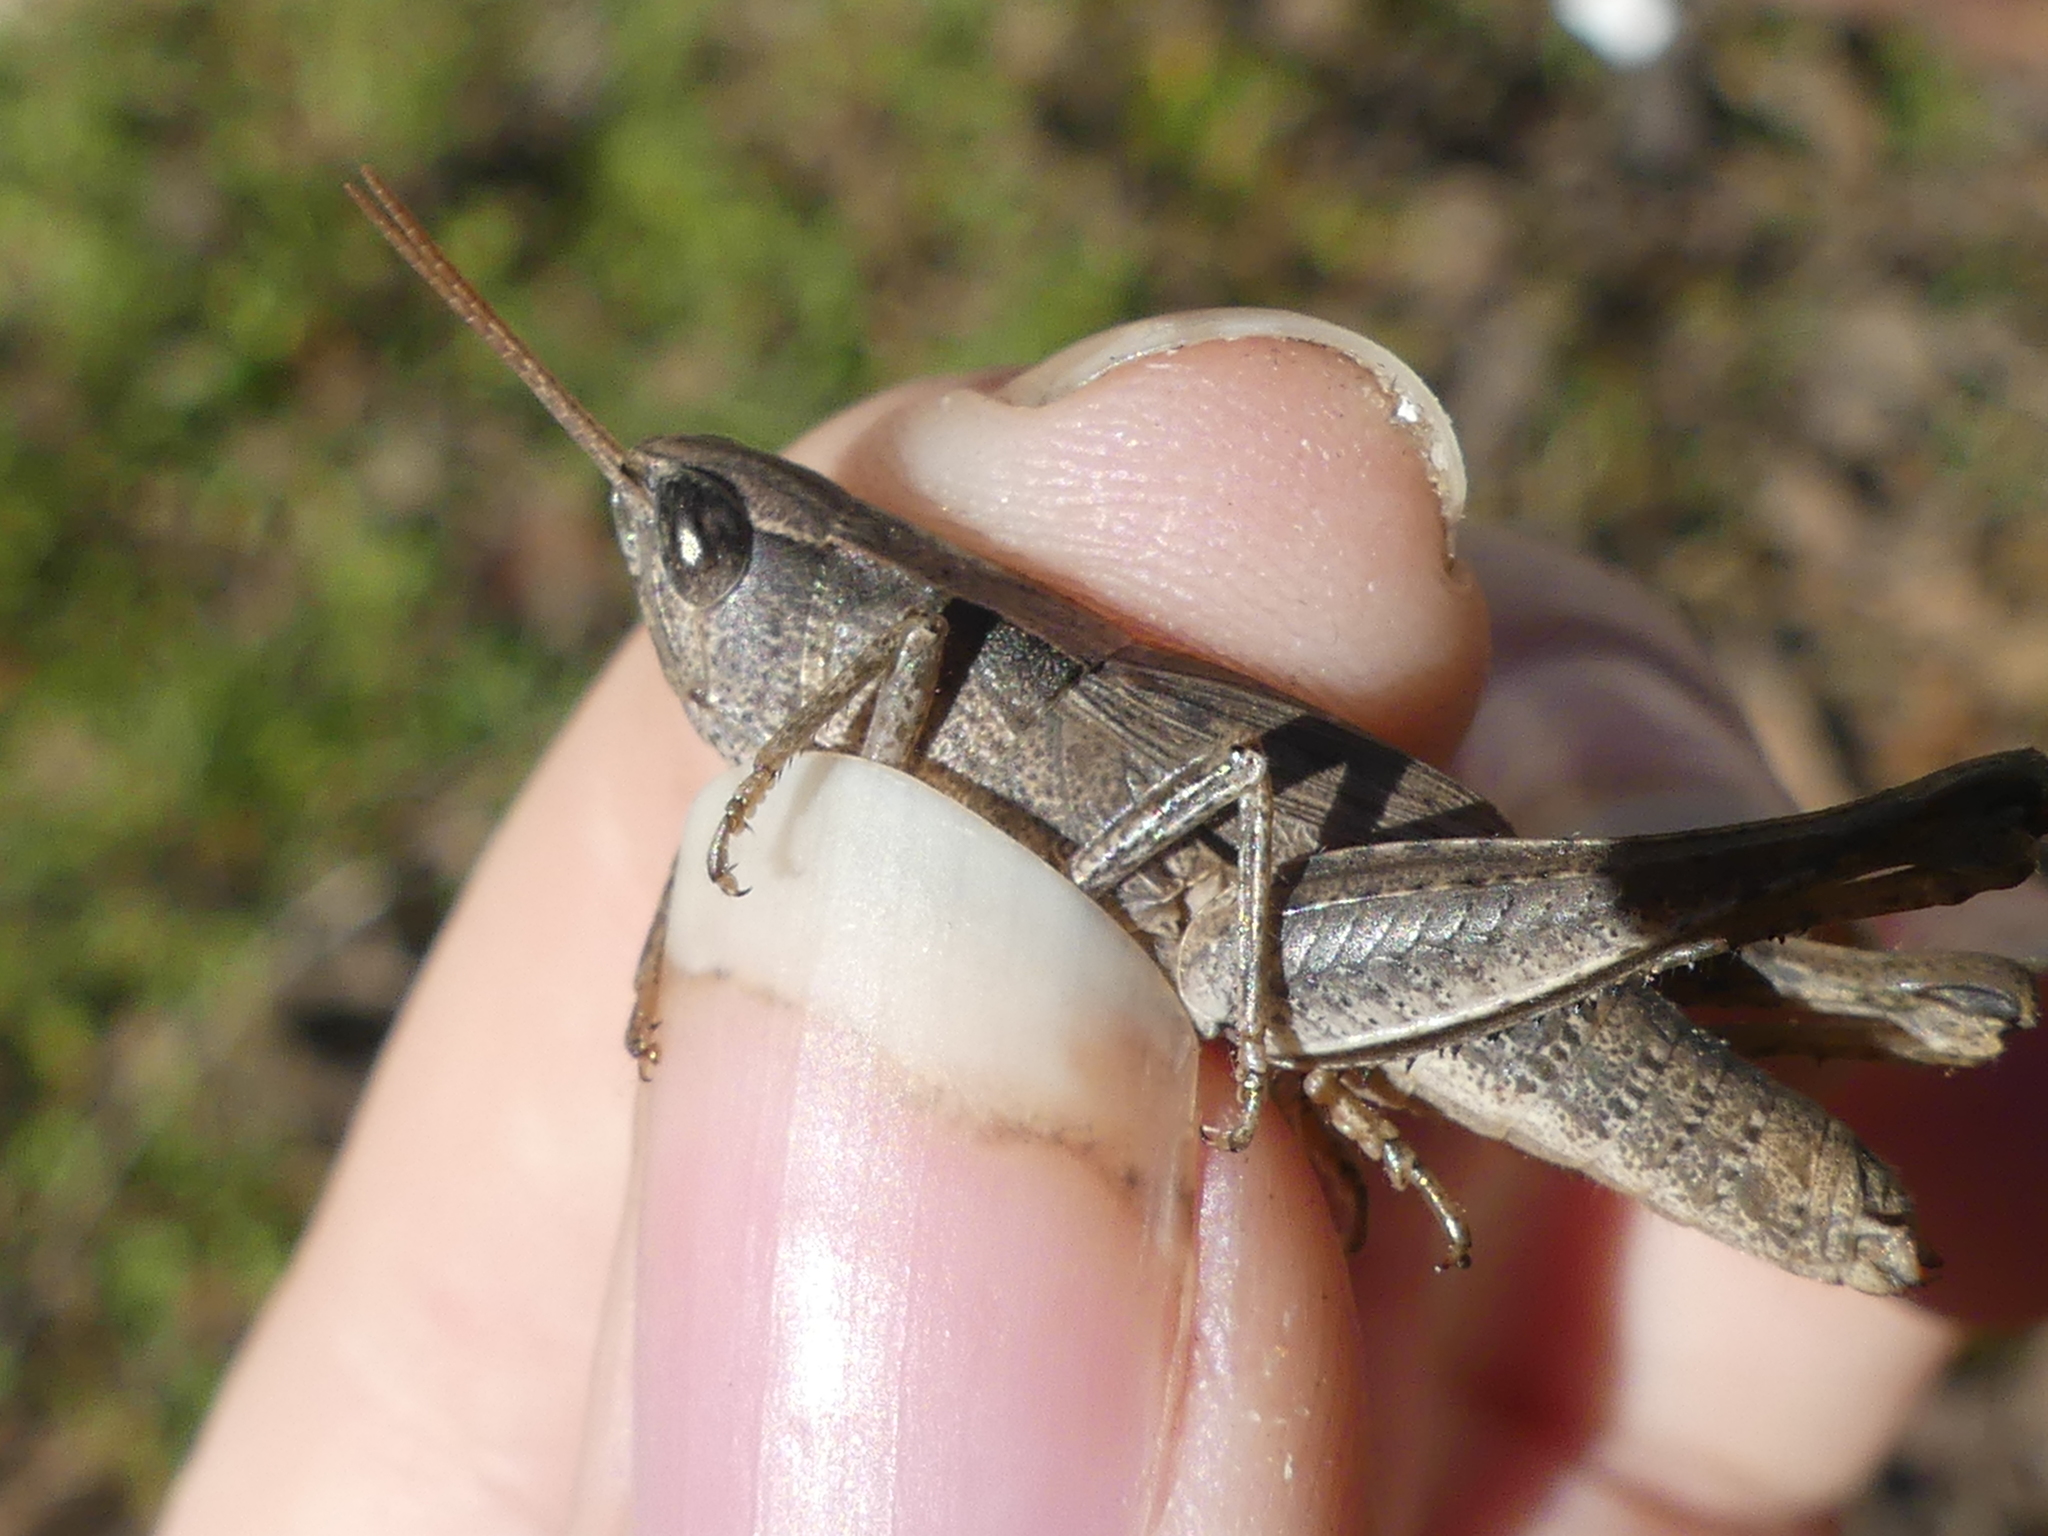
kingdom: Animalia
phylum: Arthropoda
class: Insecta
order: Orthoptera
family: Acrididae
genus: Dichromorpha
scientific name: Dichromorpha viridis
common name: Short-winged green grasshopper
